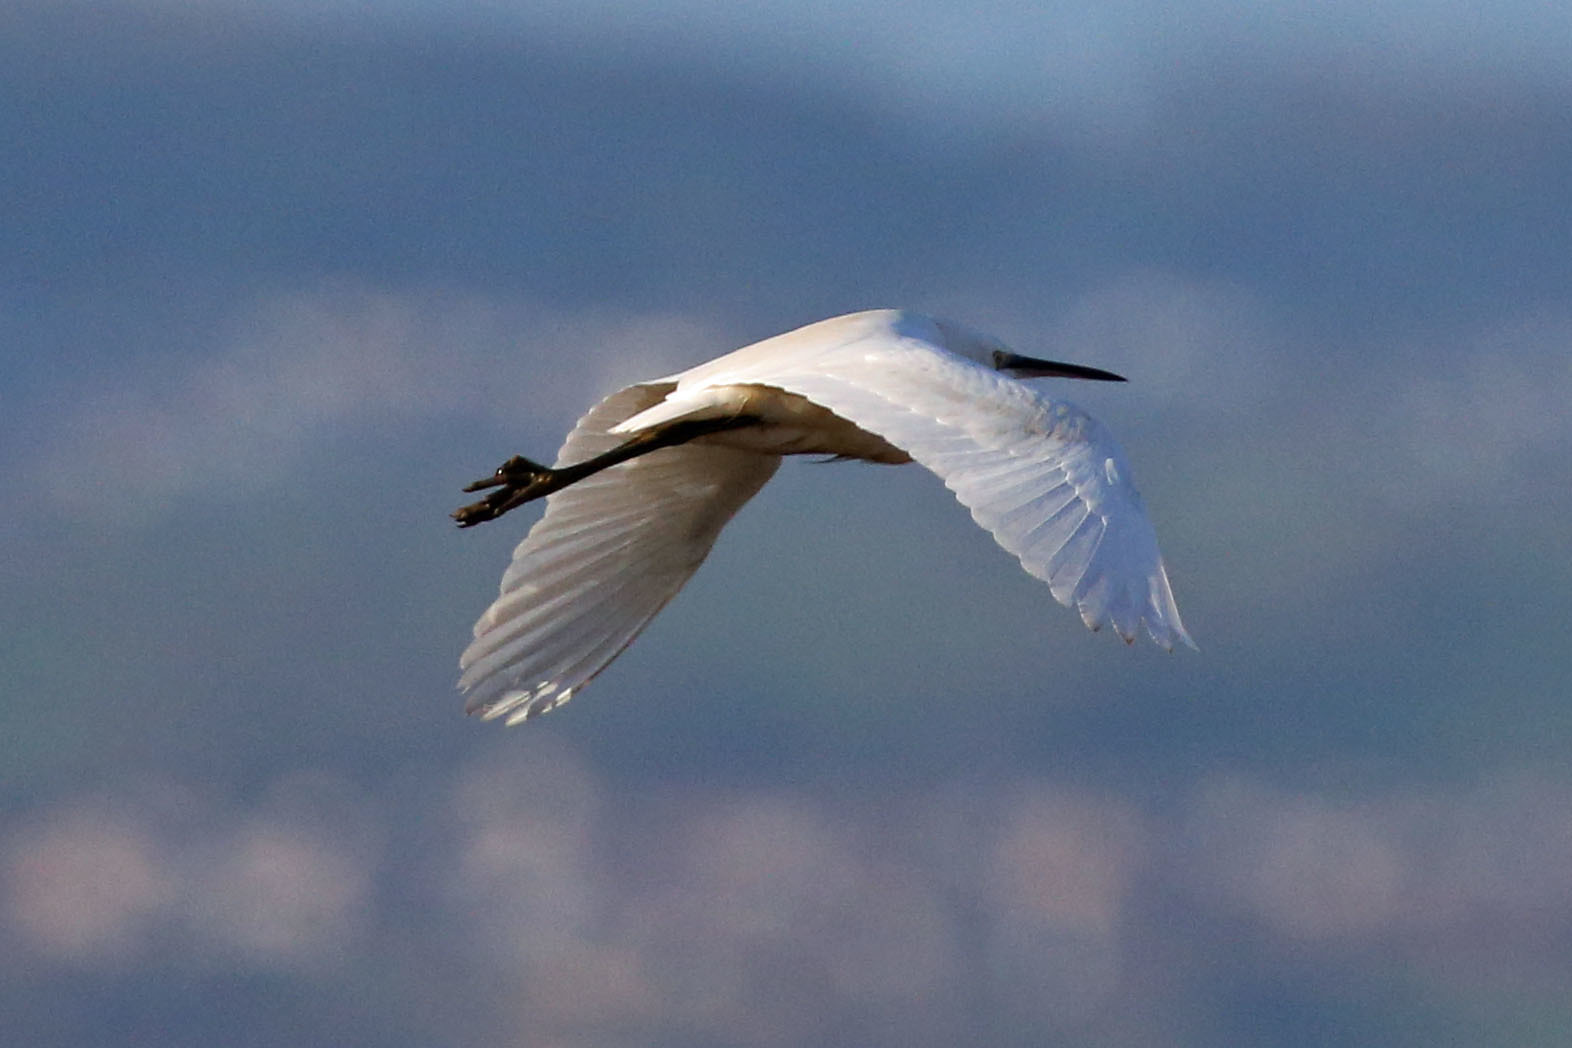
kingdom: Animalia
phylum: Chordata
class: Aves
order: Pelecaniformes
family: Ardeidae
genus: Egretta
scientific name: Egretta garzetta
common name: Little egret
